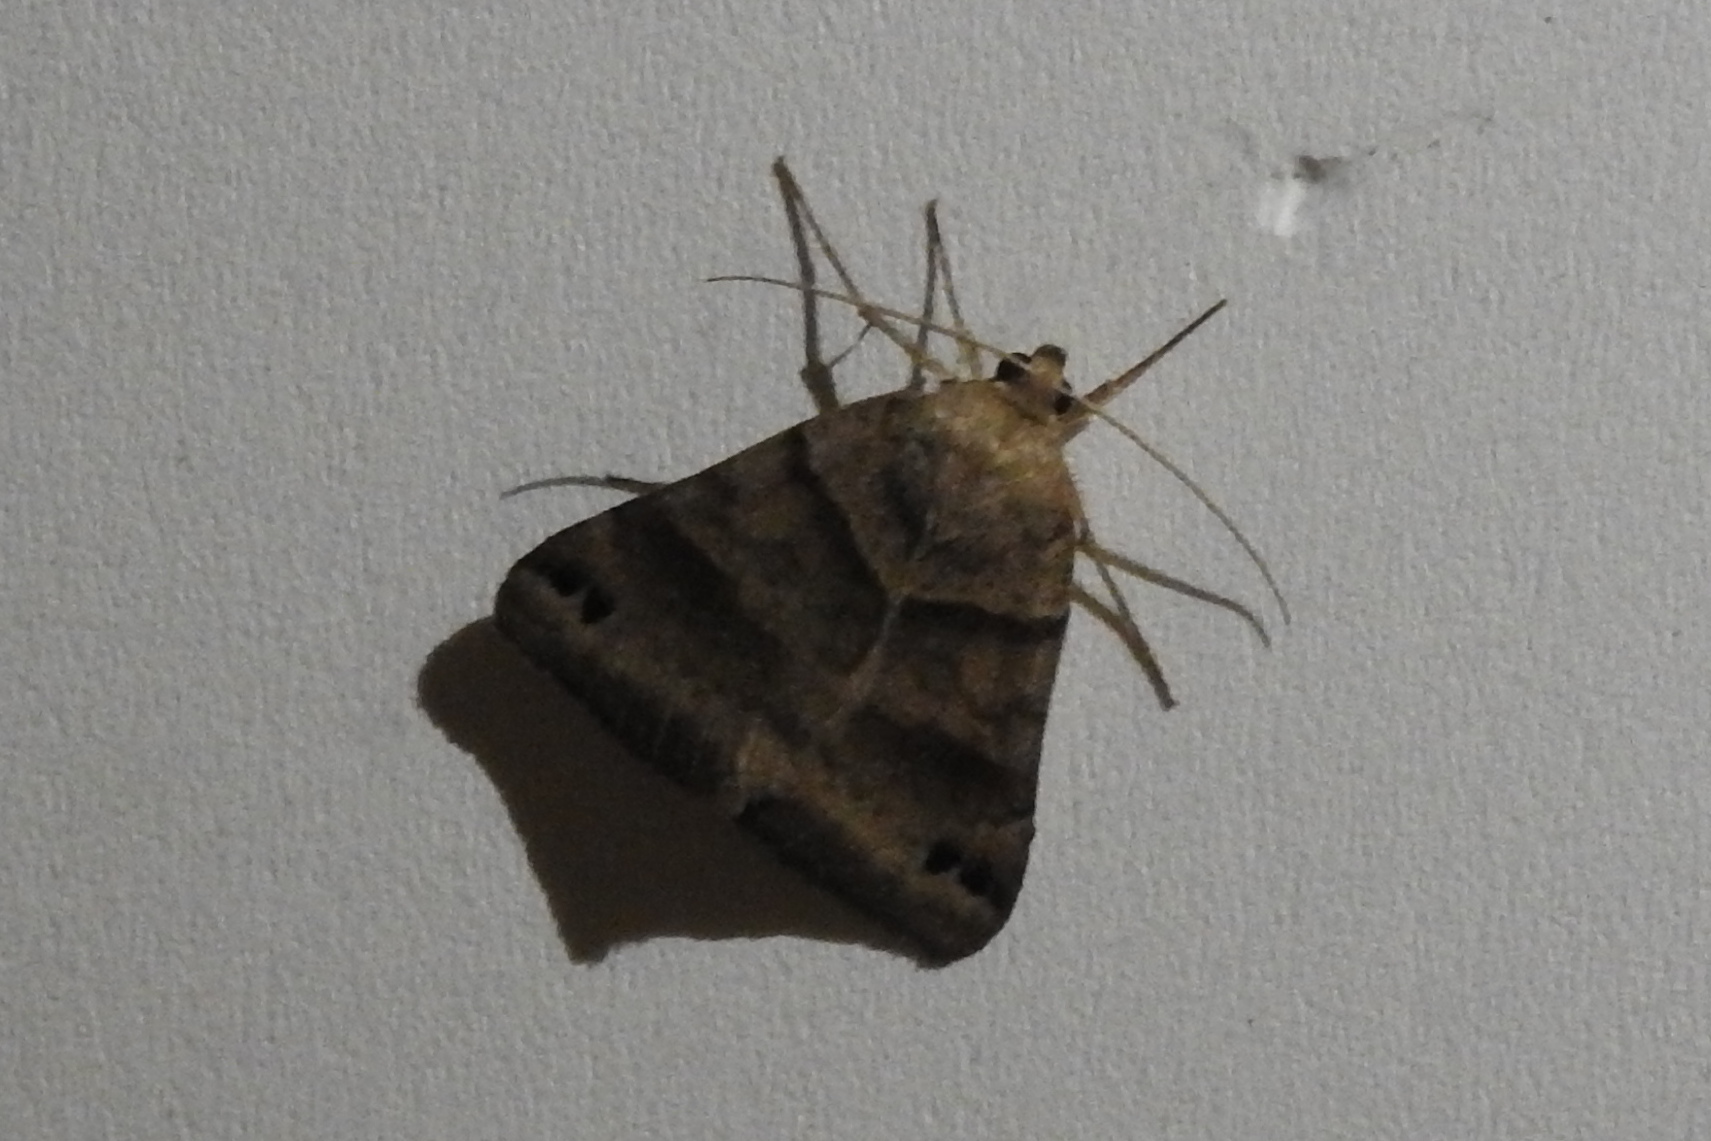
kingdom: Animalia
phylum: Arthropoda
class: Insecta
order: Lepidoptera
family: Erebidae
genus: Caenurgina
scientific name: Caenurgina crassiuscula
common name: Double-barred
